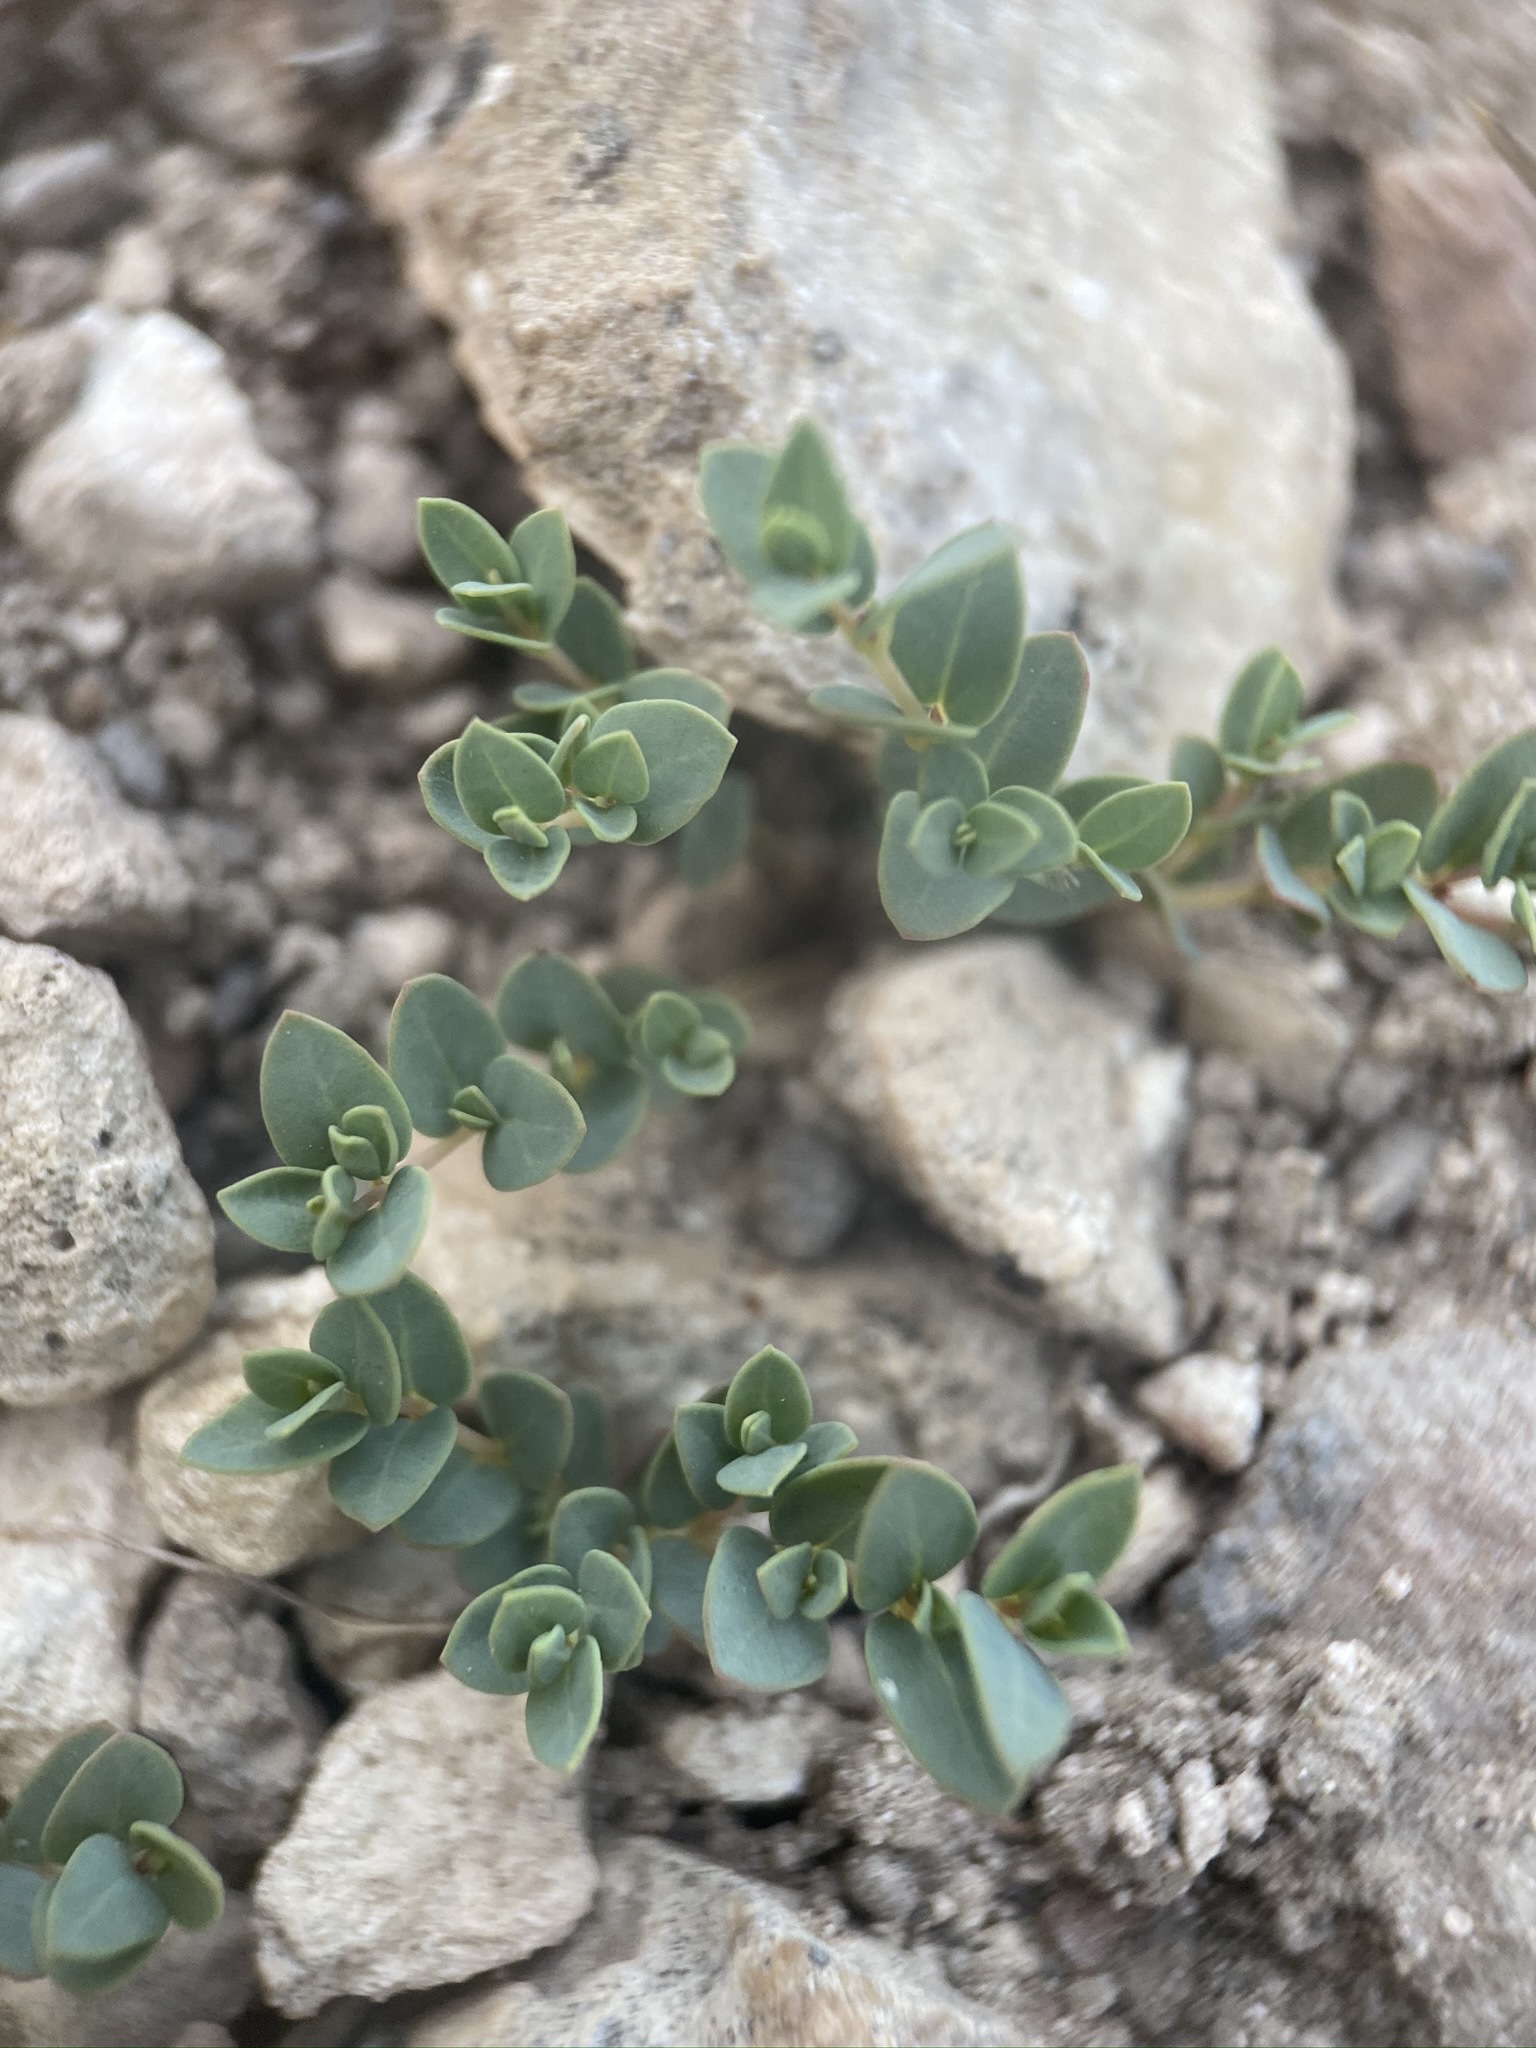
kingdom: Plantae
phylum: Tracheophyta
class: Magnoliopsida
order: Malpighiales
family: Euphorbiaceae
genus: Euphorbia
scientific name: Euphorbia fendleri
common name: Fendler's euphorbia
